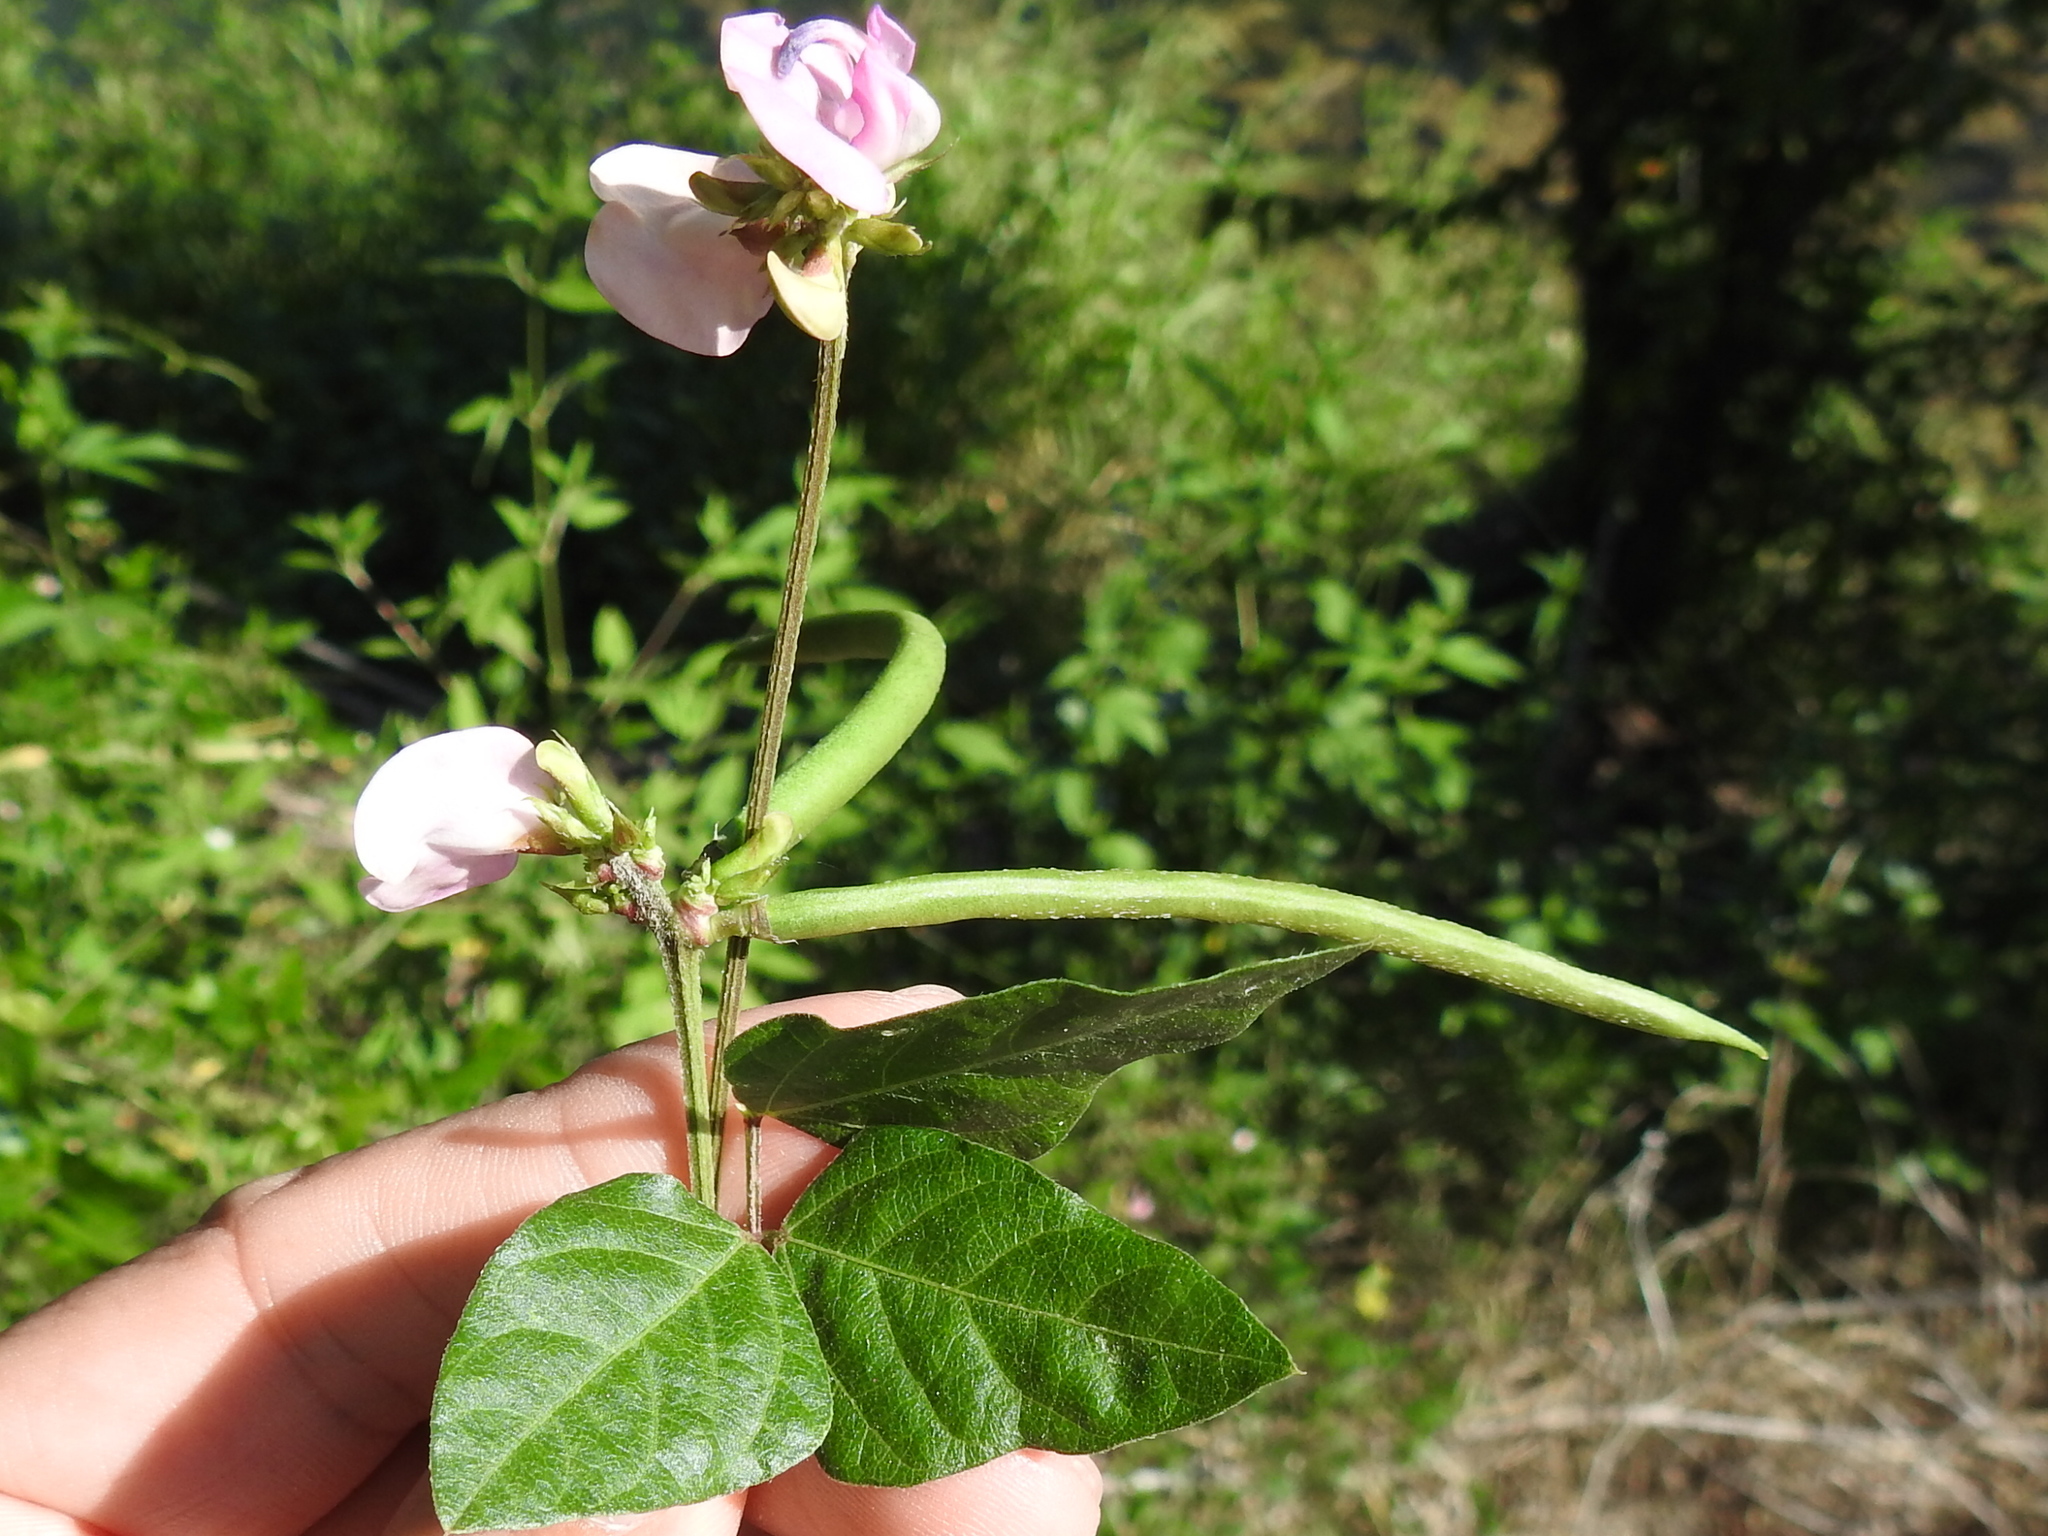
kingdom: Plantae
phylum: Tracheophyta
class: Magnoliopsida
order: Fabales
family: Fabaceae
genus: Strophostyles
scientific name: Strophostyles helvola
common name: Trailing wild bean
